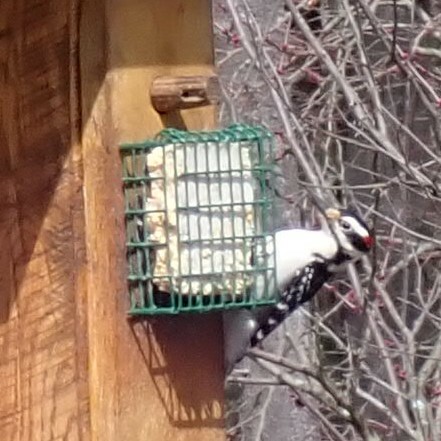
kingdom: Animalia
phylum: Chordata
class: Aves
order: Piciformes
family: Picidae
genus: Leuconotopicus
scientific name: Leuconotopicus villosus
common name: Hairy woodpecker
